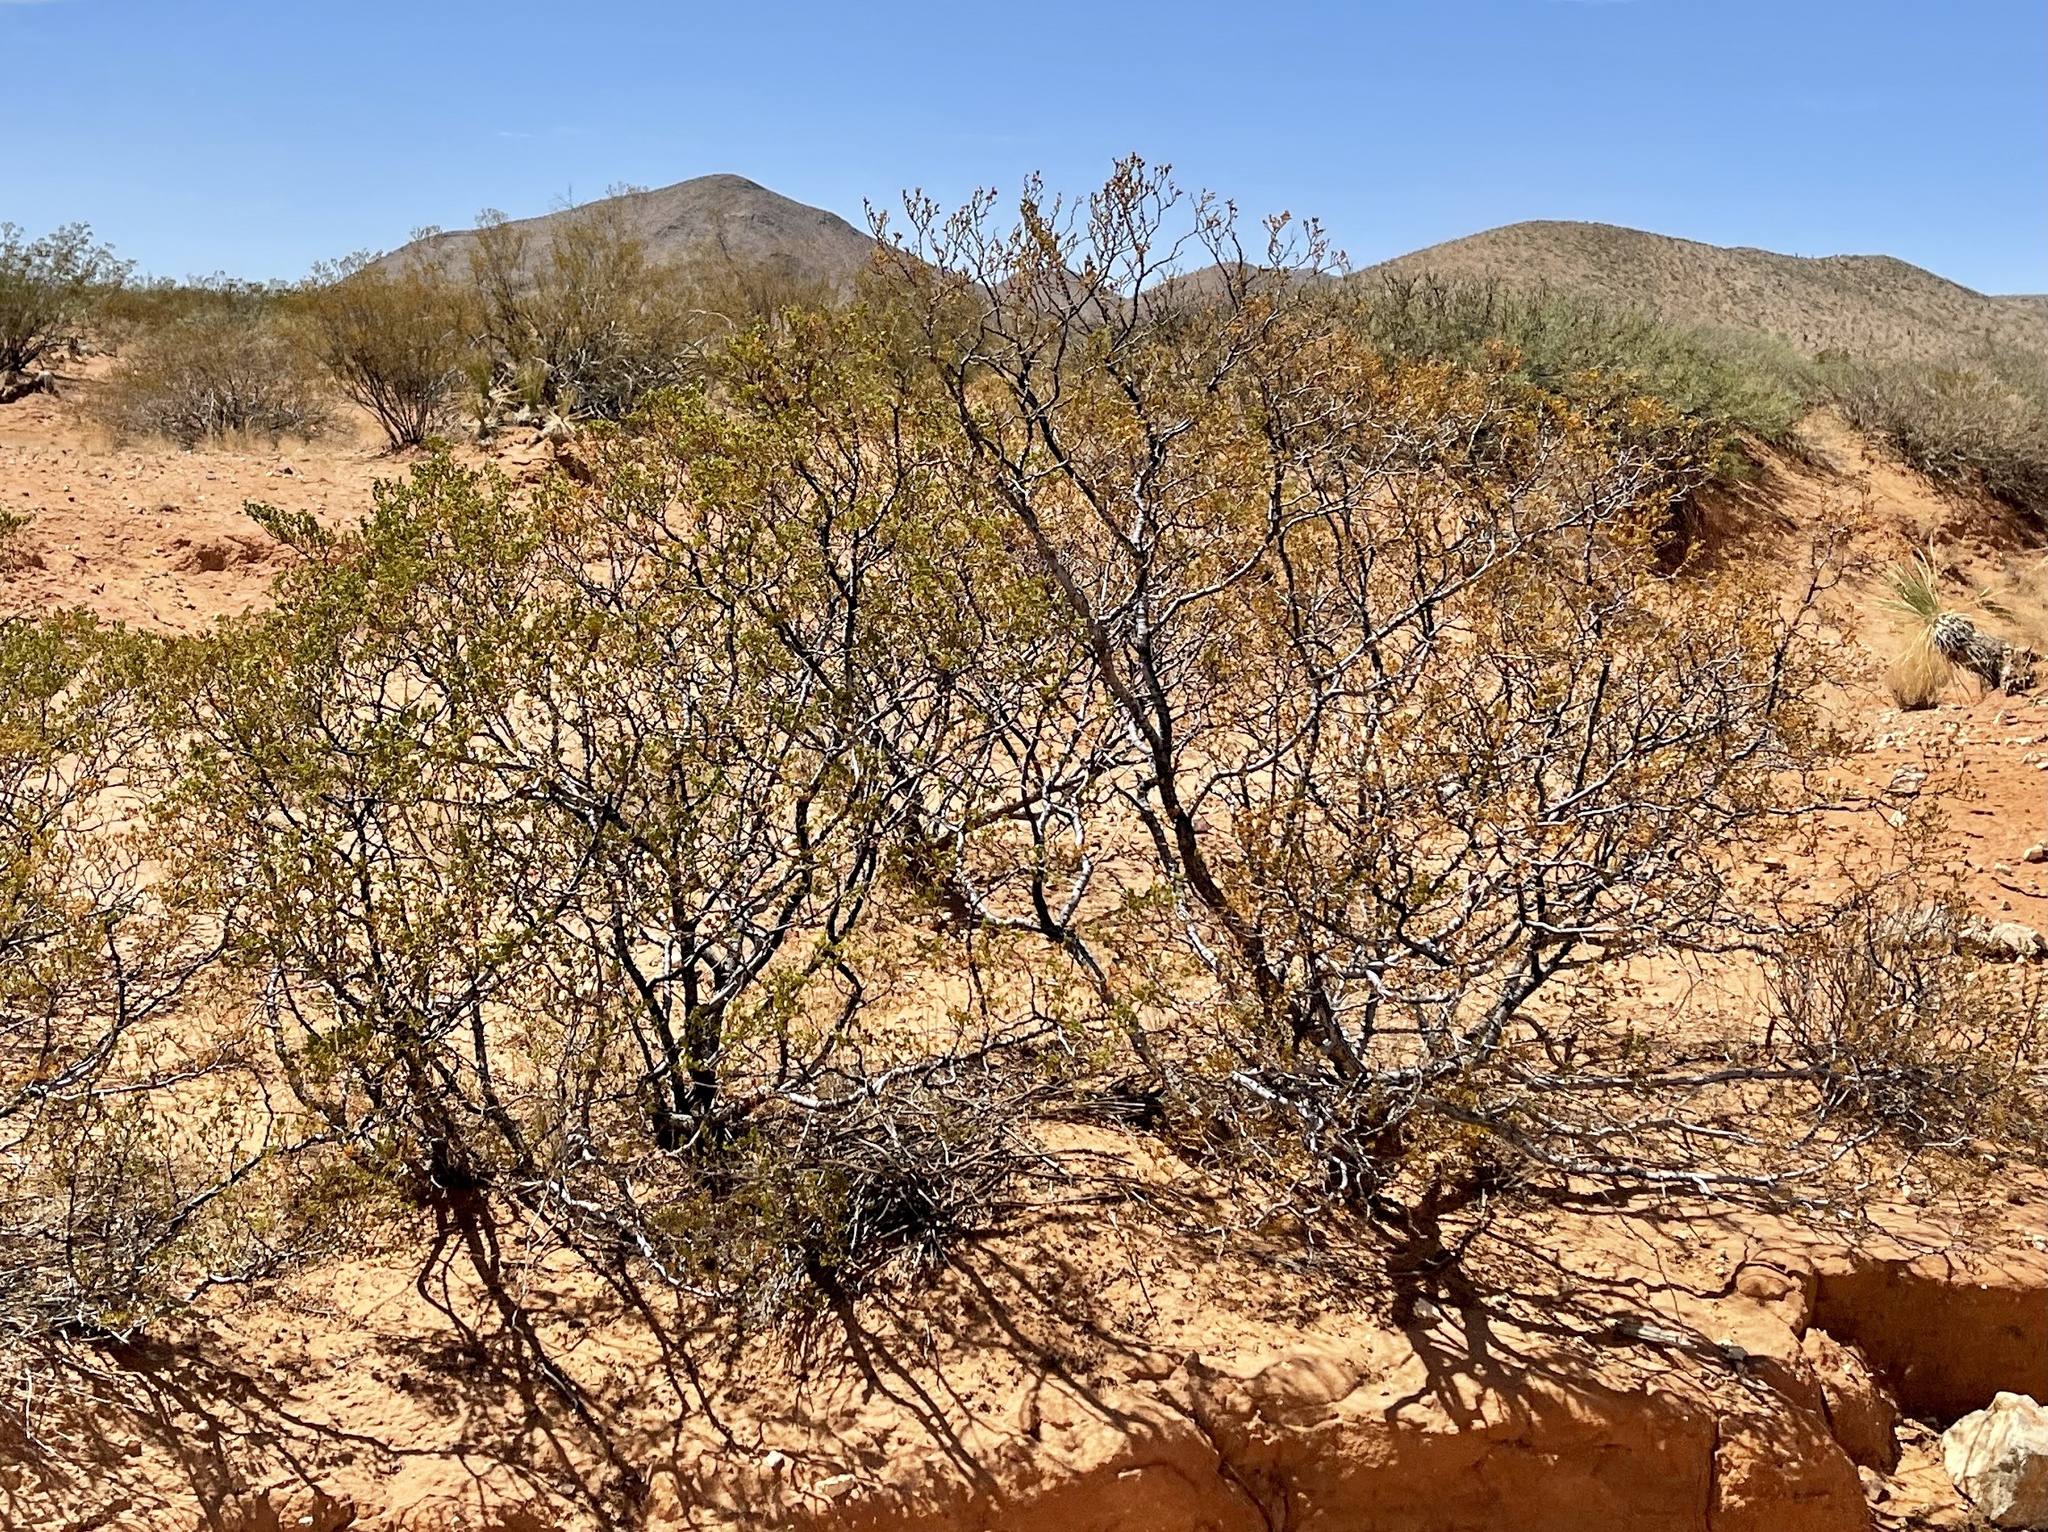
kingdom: Plantae
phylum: Tracheophyta
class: Magnoliopsida
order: Zygophyllales
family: Zygophyllaceae
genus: Larrea
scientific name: Larrea tridentata
